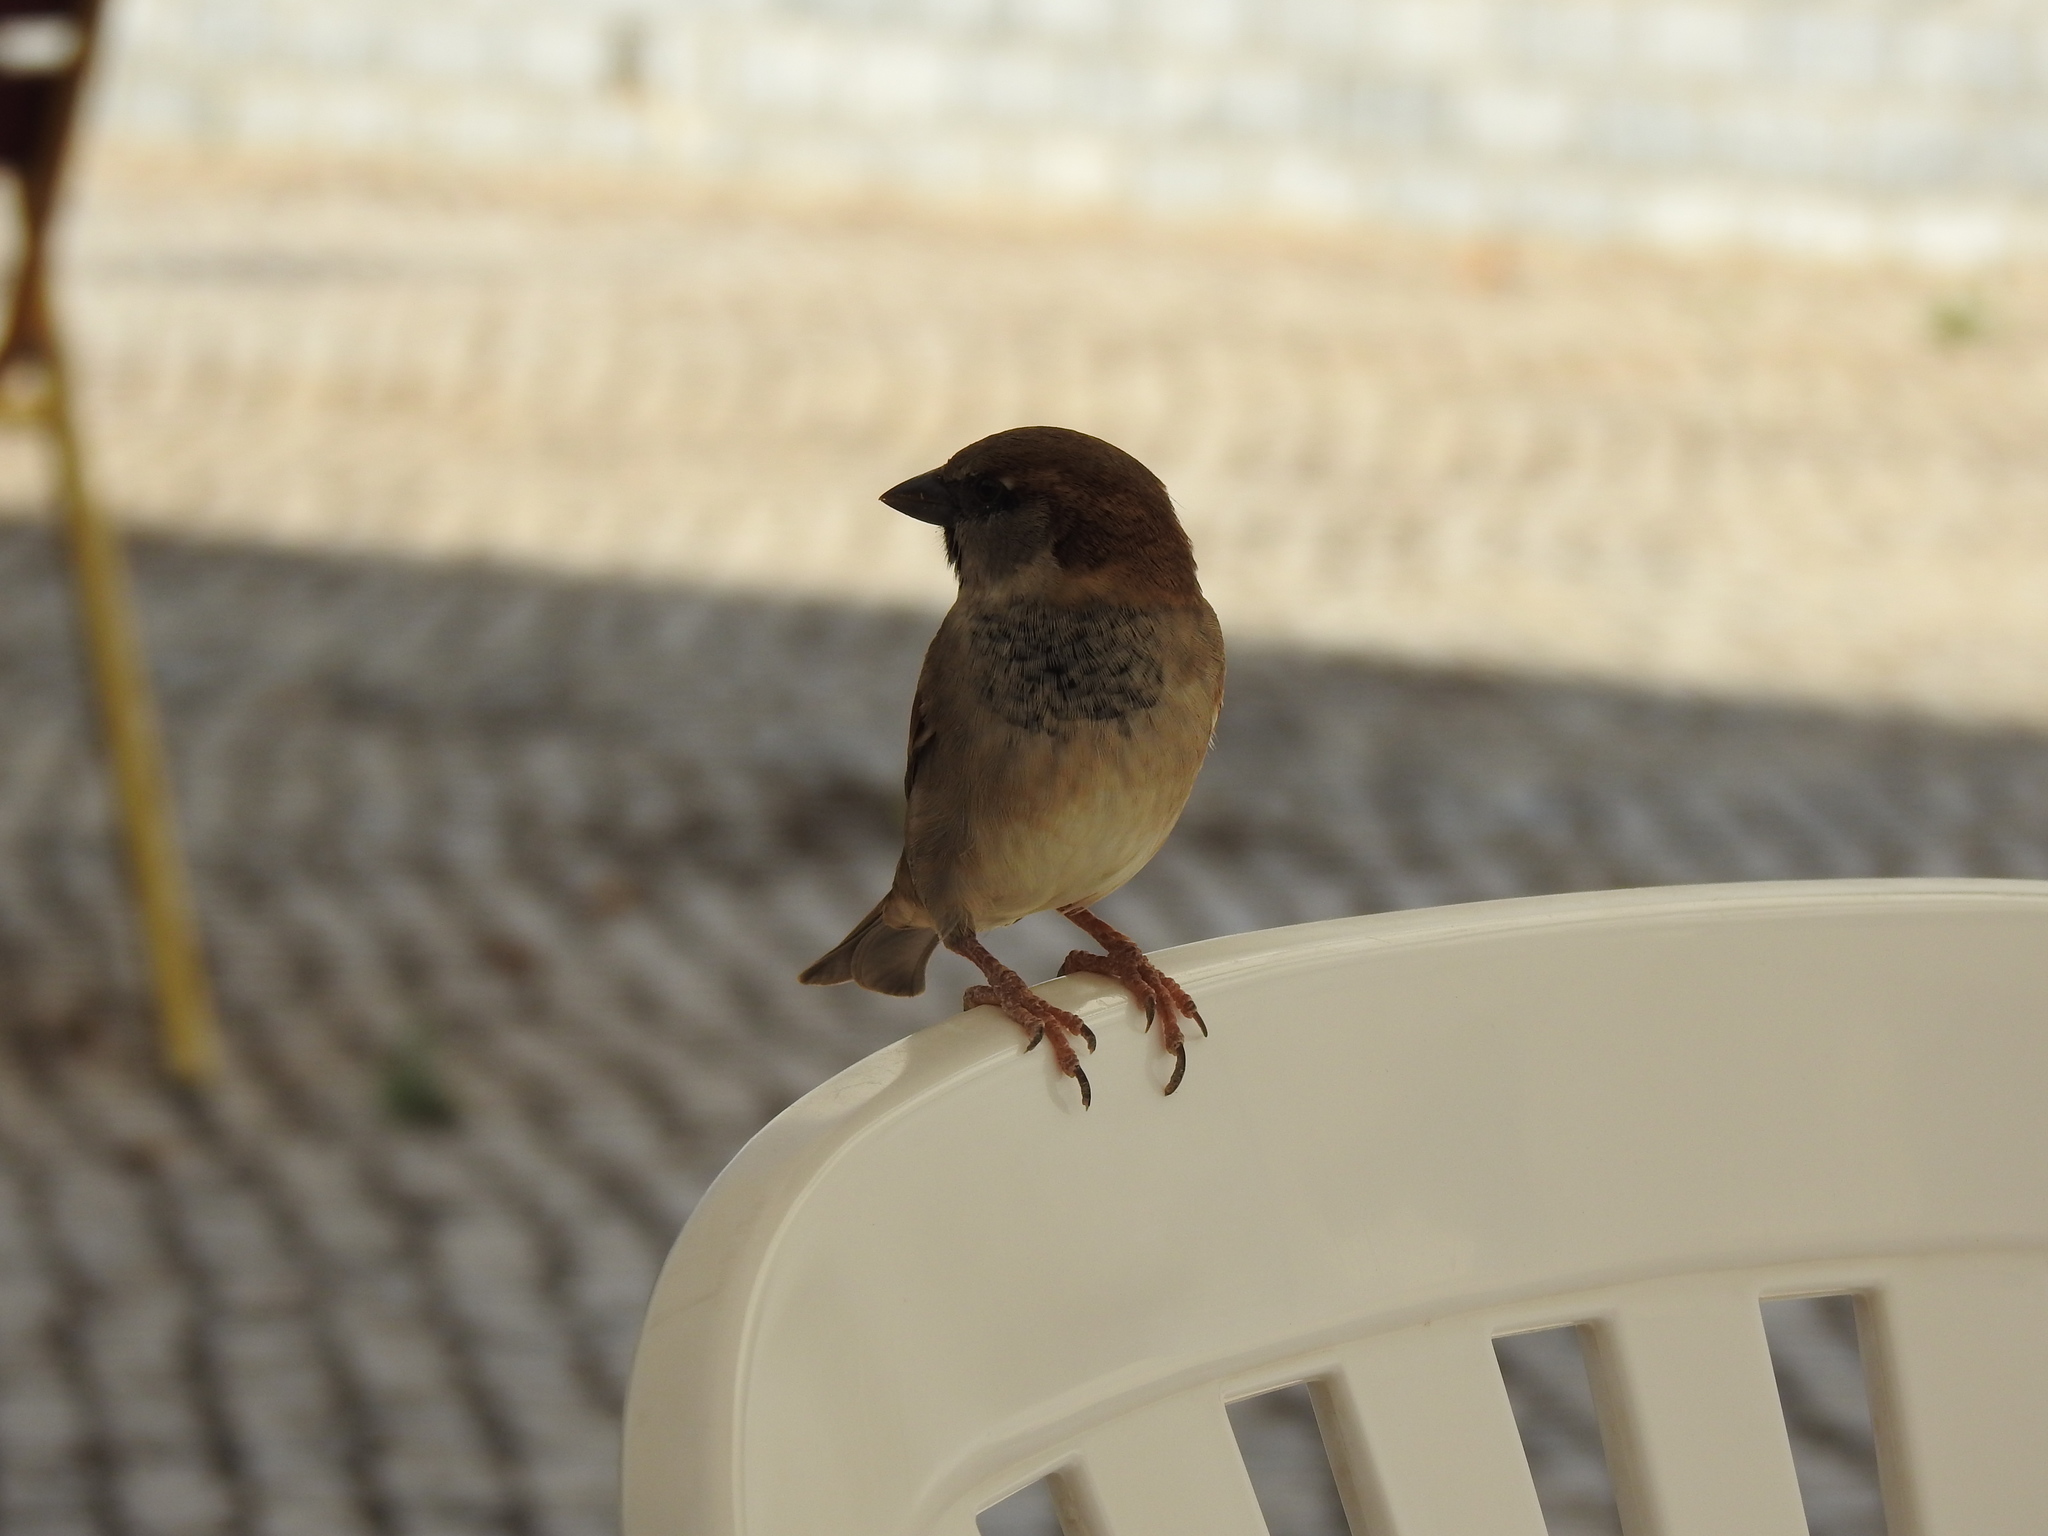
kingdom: Animalia
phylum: Chordata
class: Aves
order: Passeriformes
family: Passeridae
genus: Passer
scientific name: Passer domesticus
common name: House sparrow
